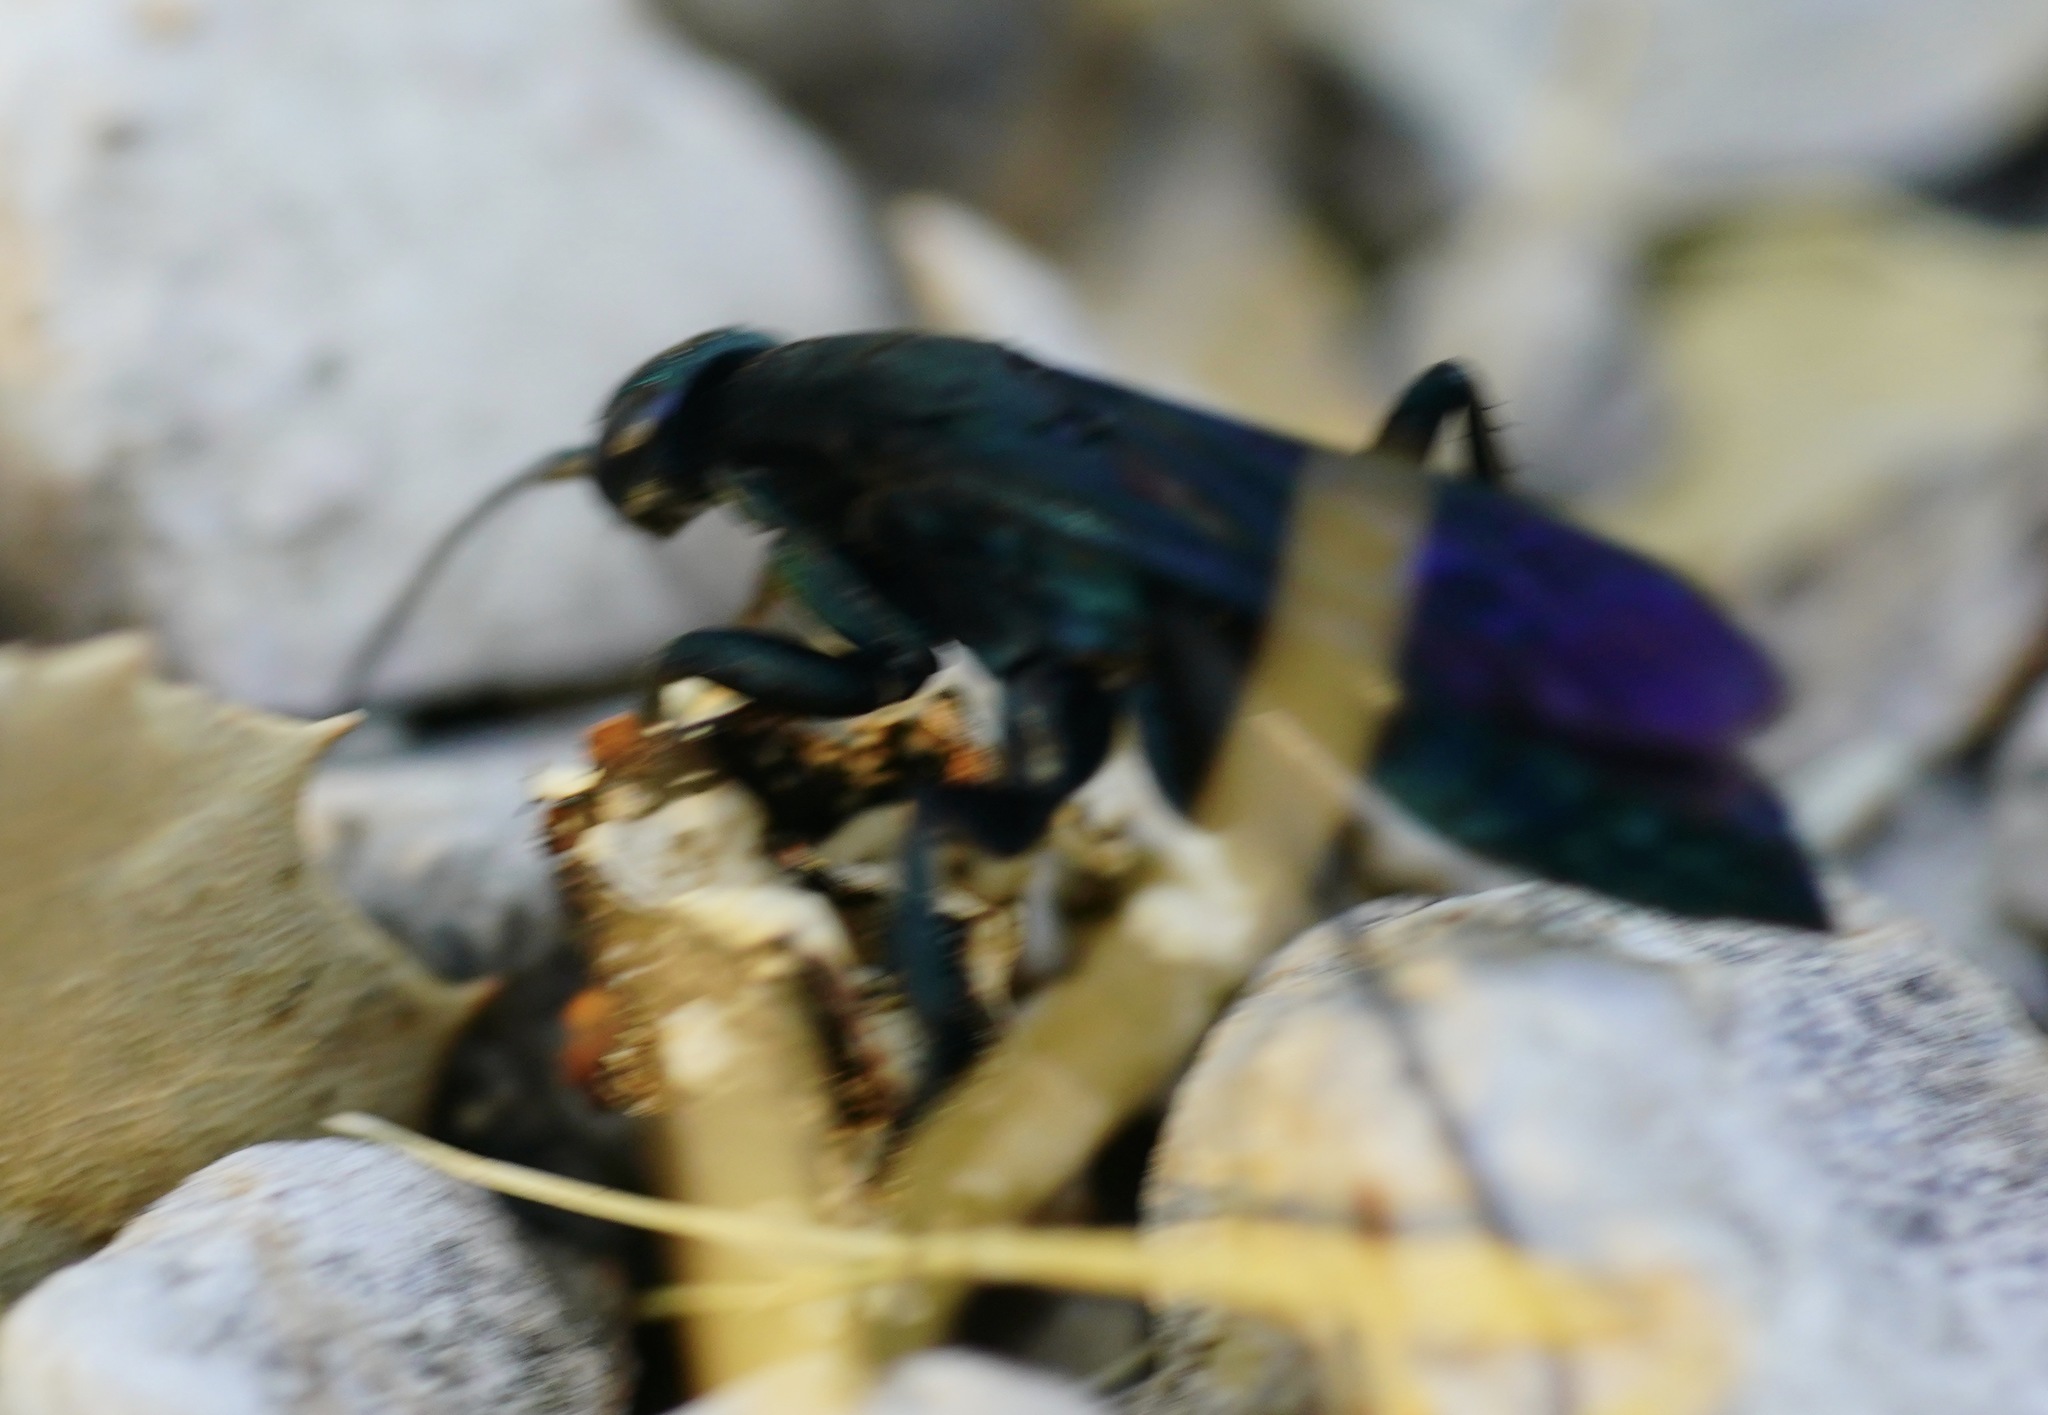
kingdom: Animalia
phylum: Arthropoda
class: Insecta
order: Hymenoptera
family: Pompilidae
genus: Aporus
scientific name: Aporus luxus
